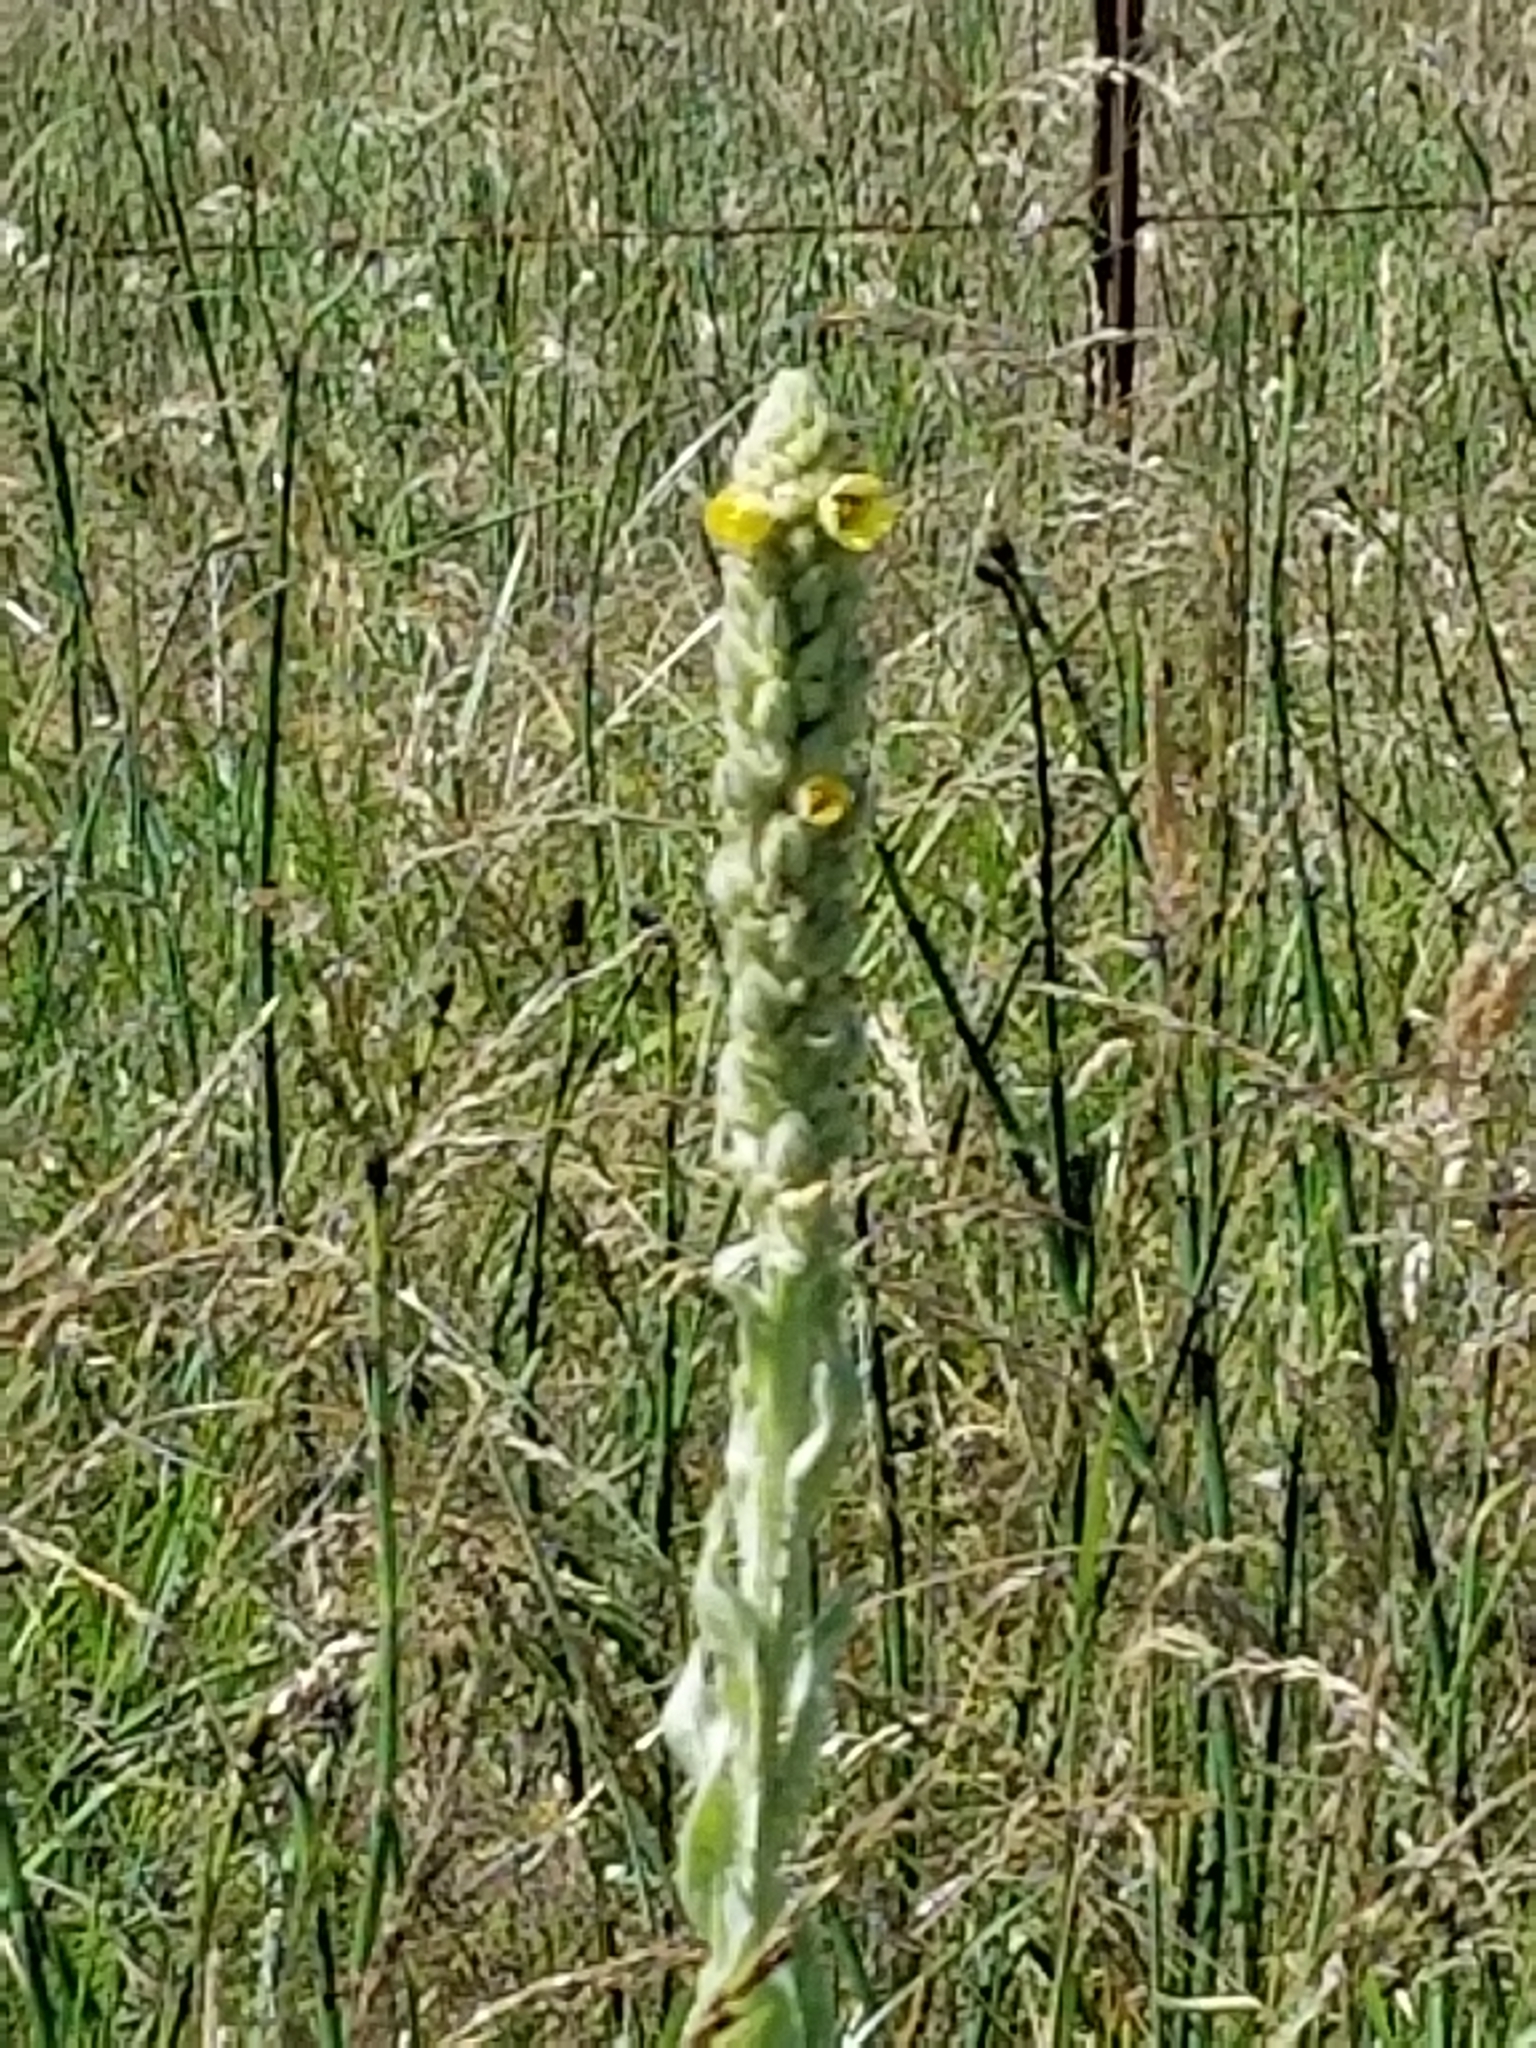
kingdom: Plantae
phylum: Tracheophyta
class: Magnoliopsida
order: Lamiales
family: Scrophulariaceae
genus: Verbascum
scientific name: Verbascum thapsus
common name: Common mullein
